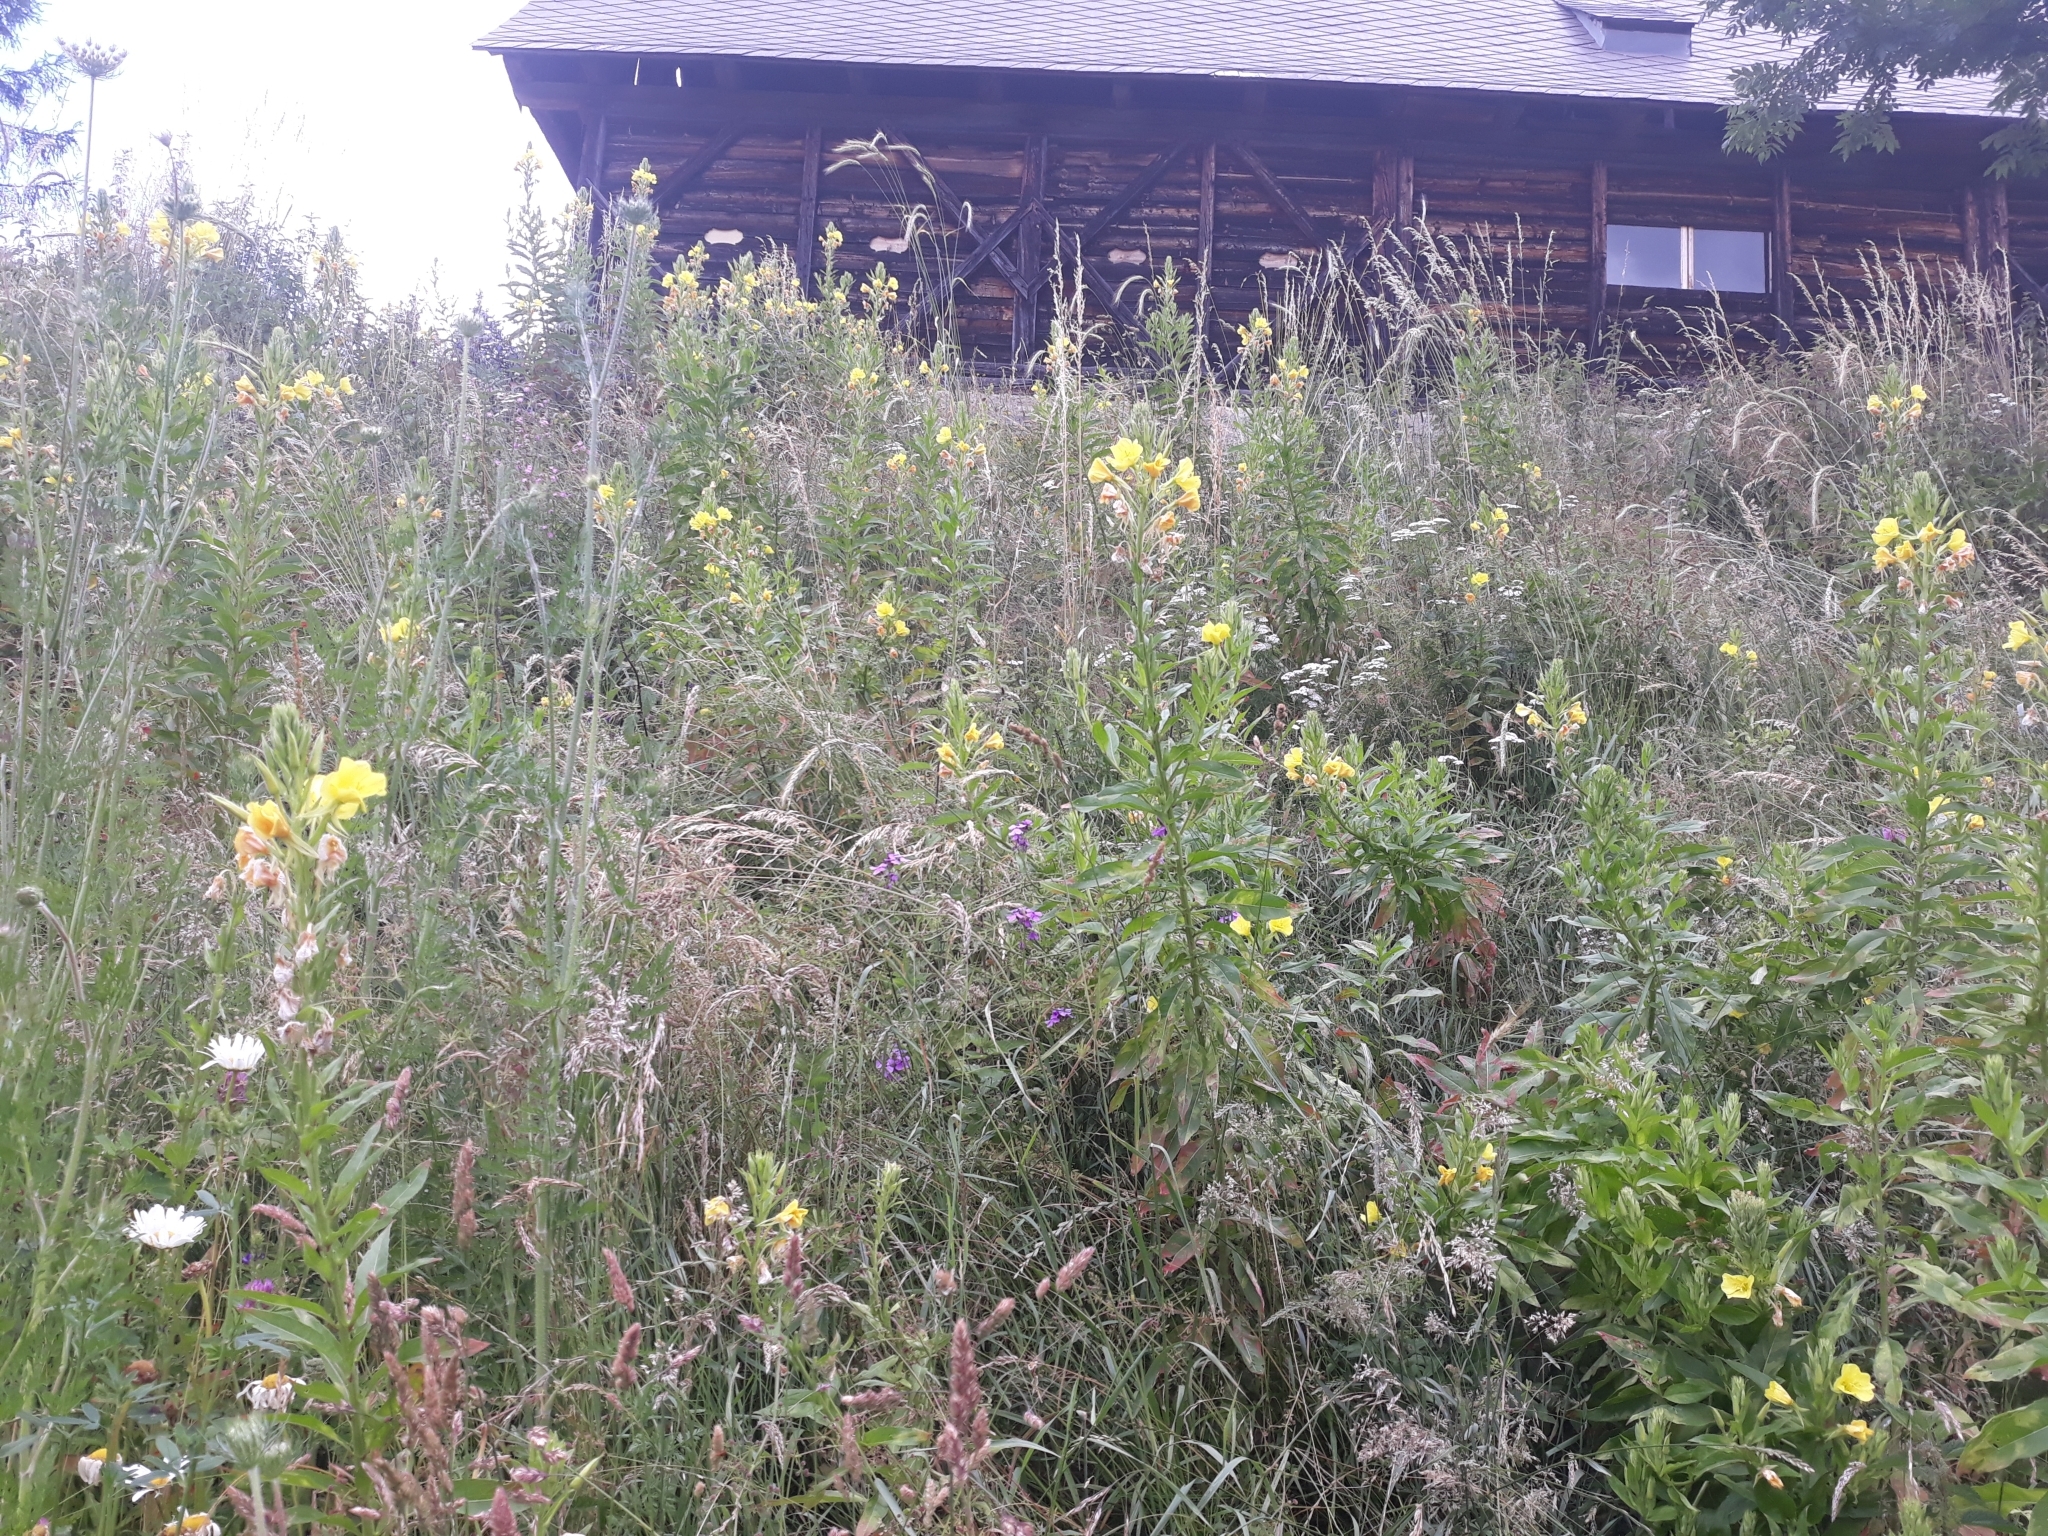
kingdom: Plantae
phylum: Tracheophyta
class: Magnoliopsida
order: Myrtales
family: Onagraceae
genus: Oenothera
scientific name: Oenothera biennis
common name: Common evening-primrose
